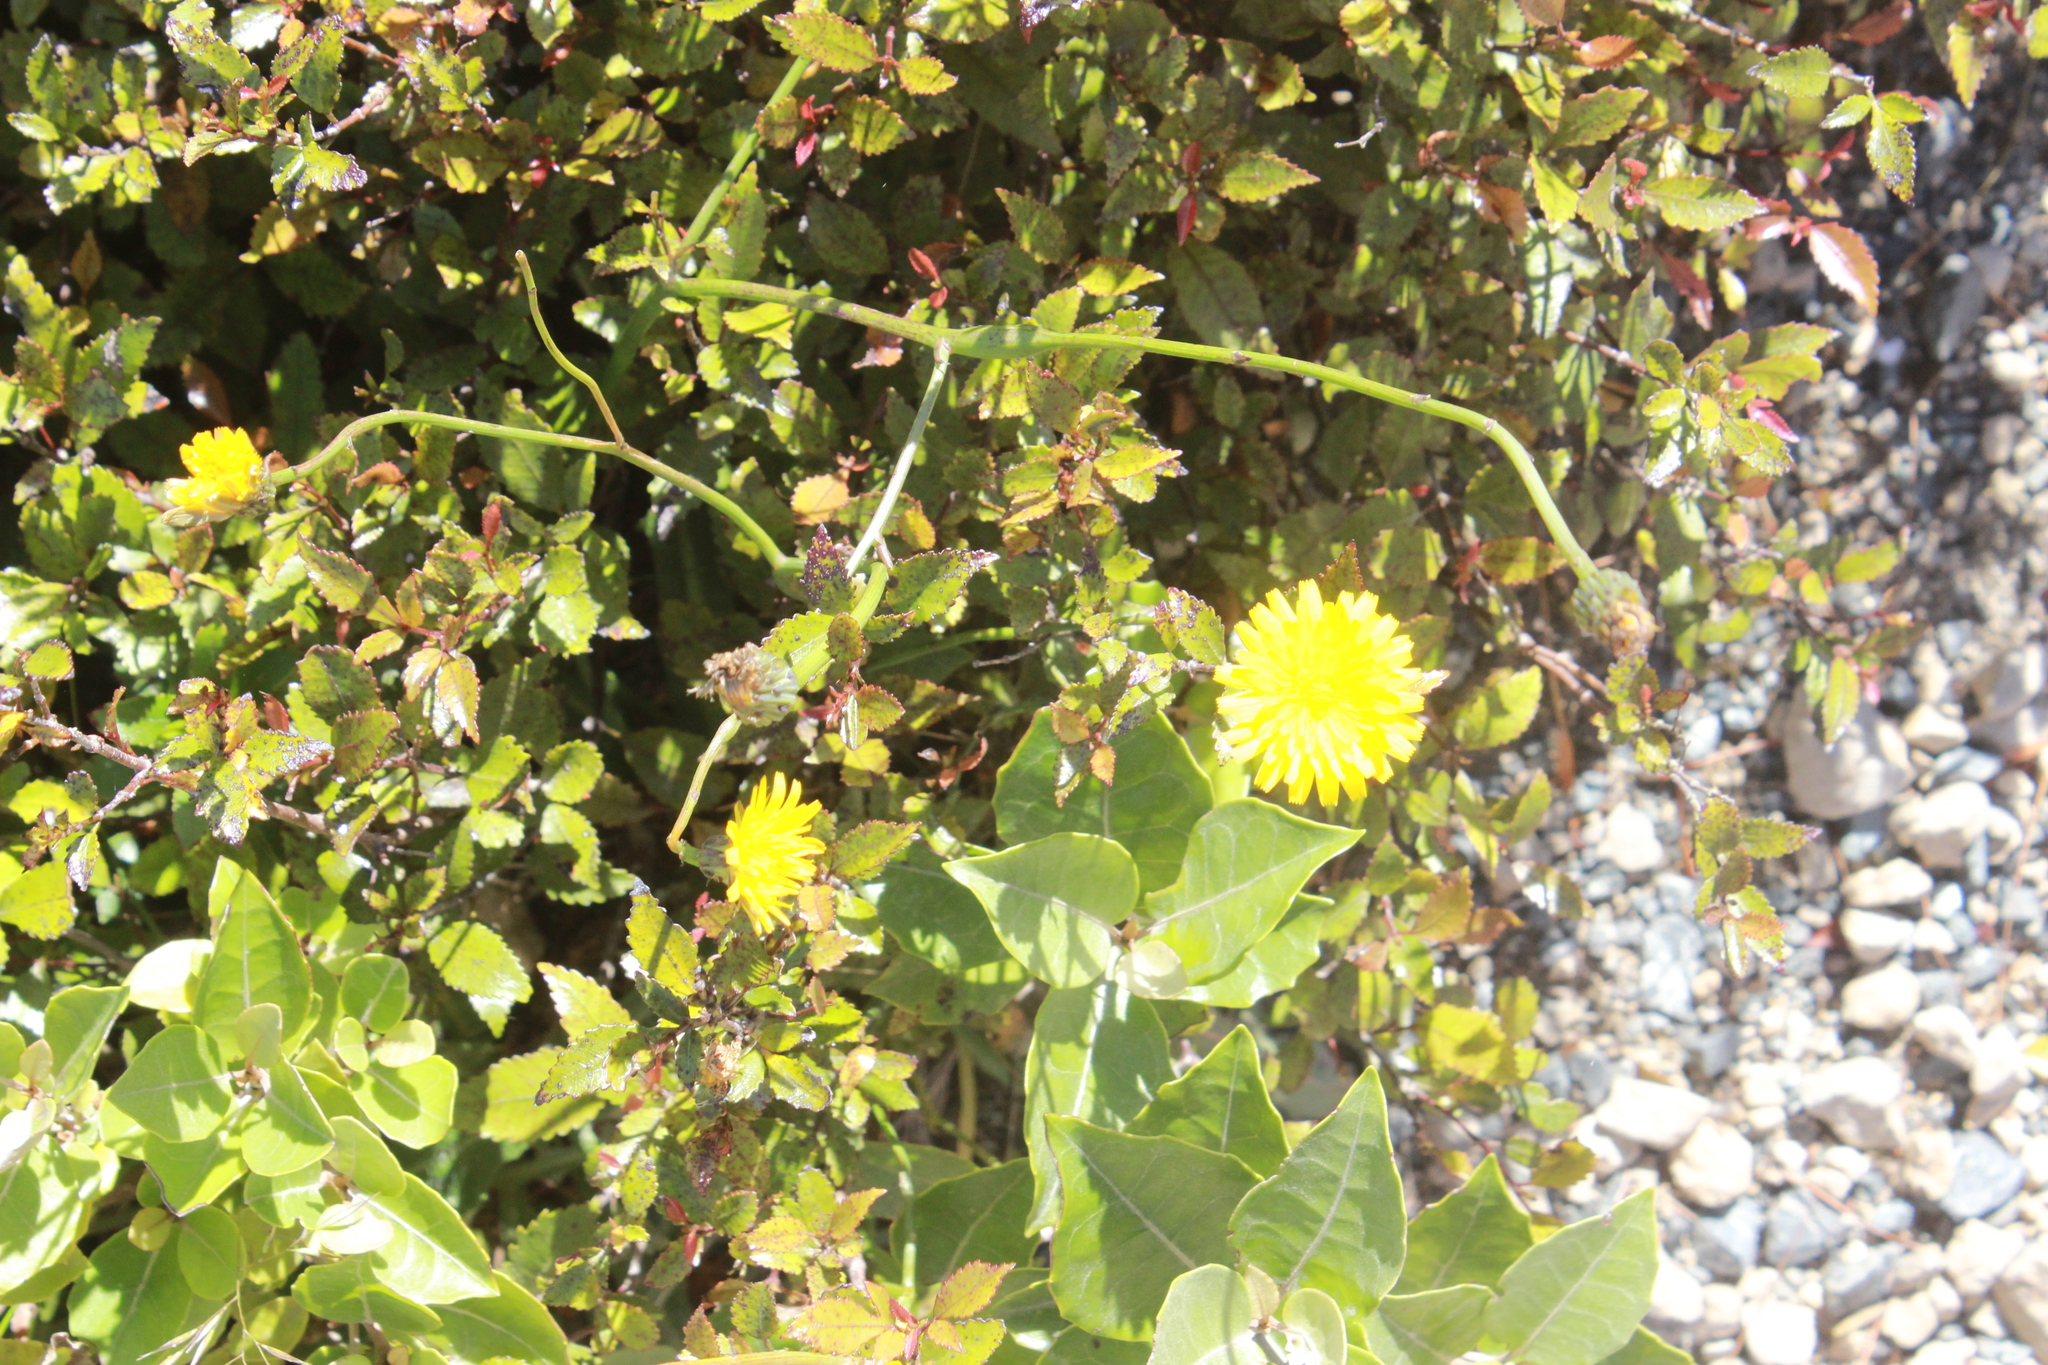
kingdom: Animalia
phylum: Arthropoda
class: Insecta
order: Hymenoptera
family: Cynipidae
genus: Phanacis
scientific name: Phanacis hypochoeridis
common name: Gall wasp
